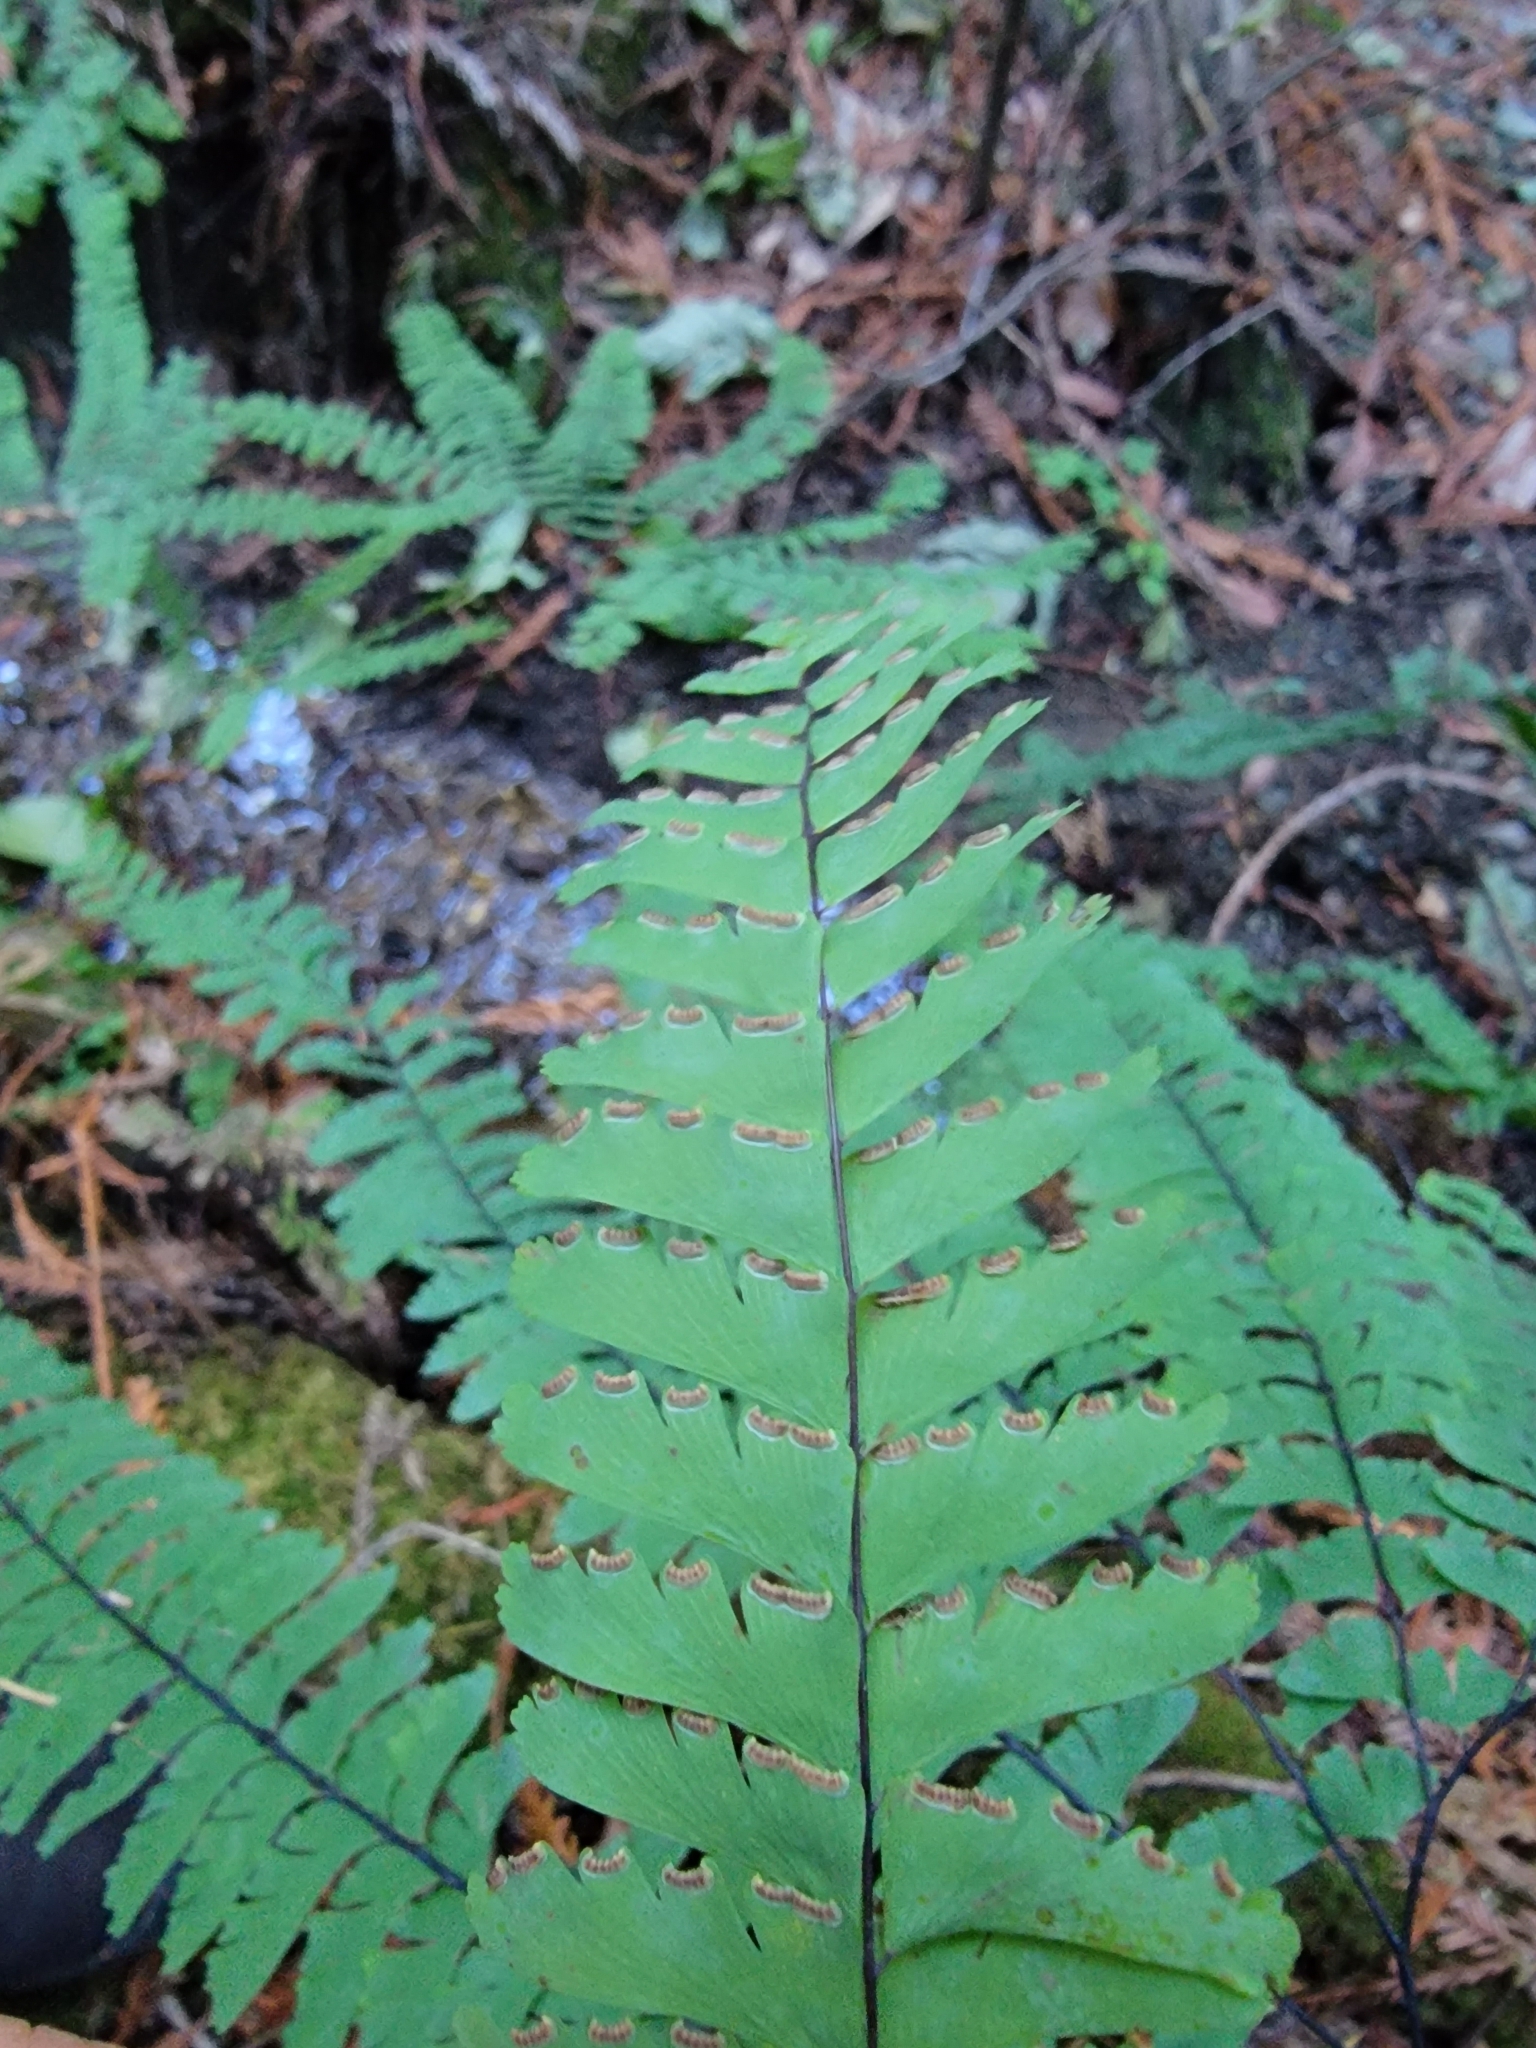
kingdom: Plantae
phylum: Tracheophyta
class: Polypodiopsida
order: Polypodiales
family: Pteridaceae
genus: Adiantum
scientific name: Adiantum aleuticum
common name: Aleutian maidenhair fern
